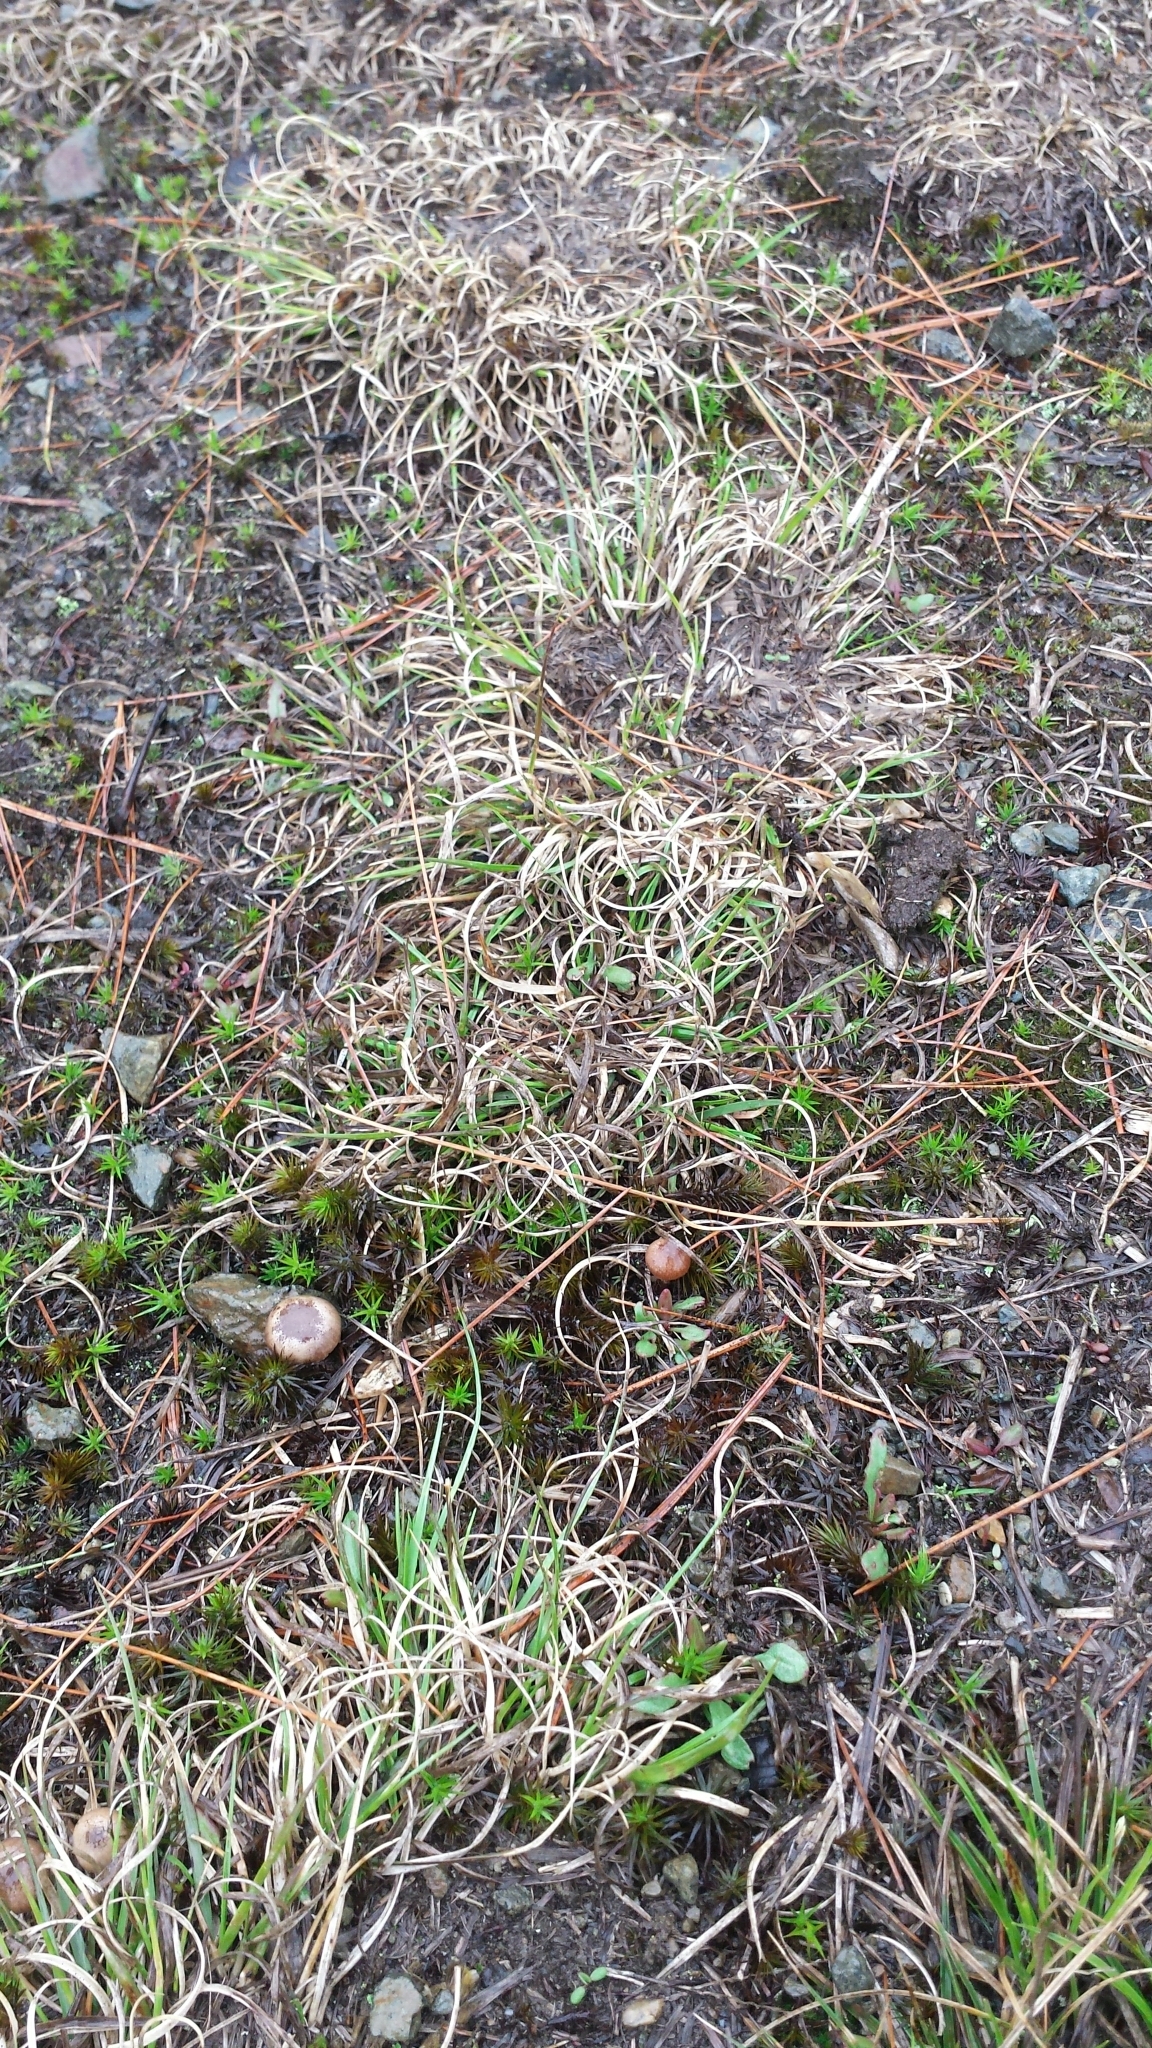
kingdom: Plantae
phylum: Tracheophyta
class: Liliopsida
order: Poales
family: Poaceae
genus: Danthonia
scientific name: Danthonia spicata
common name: Common wild oatgrass
